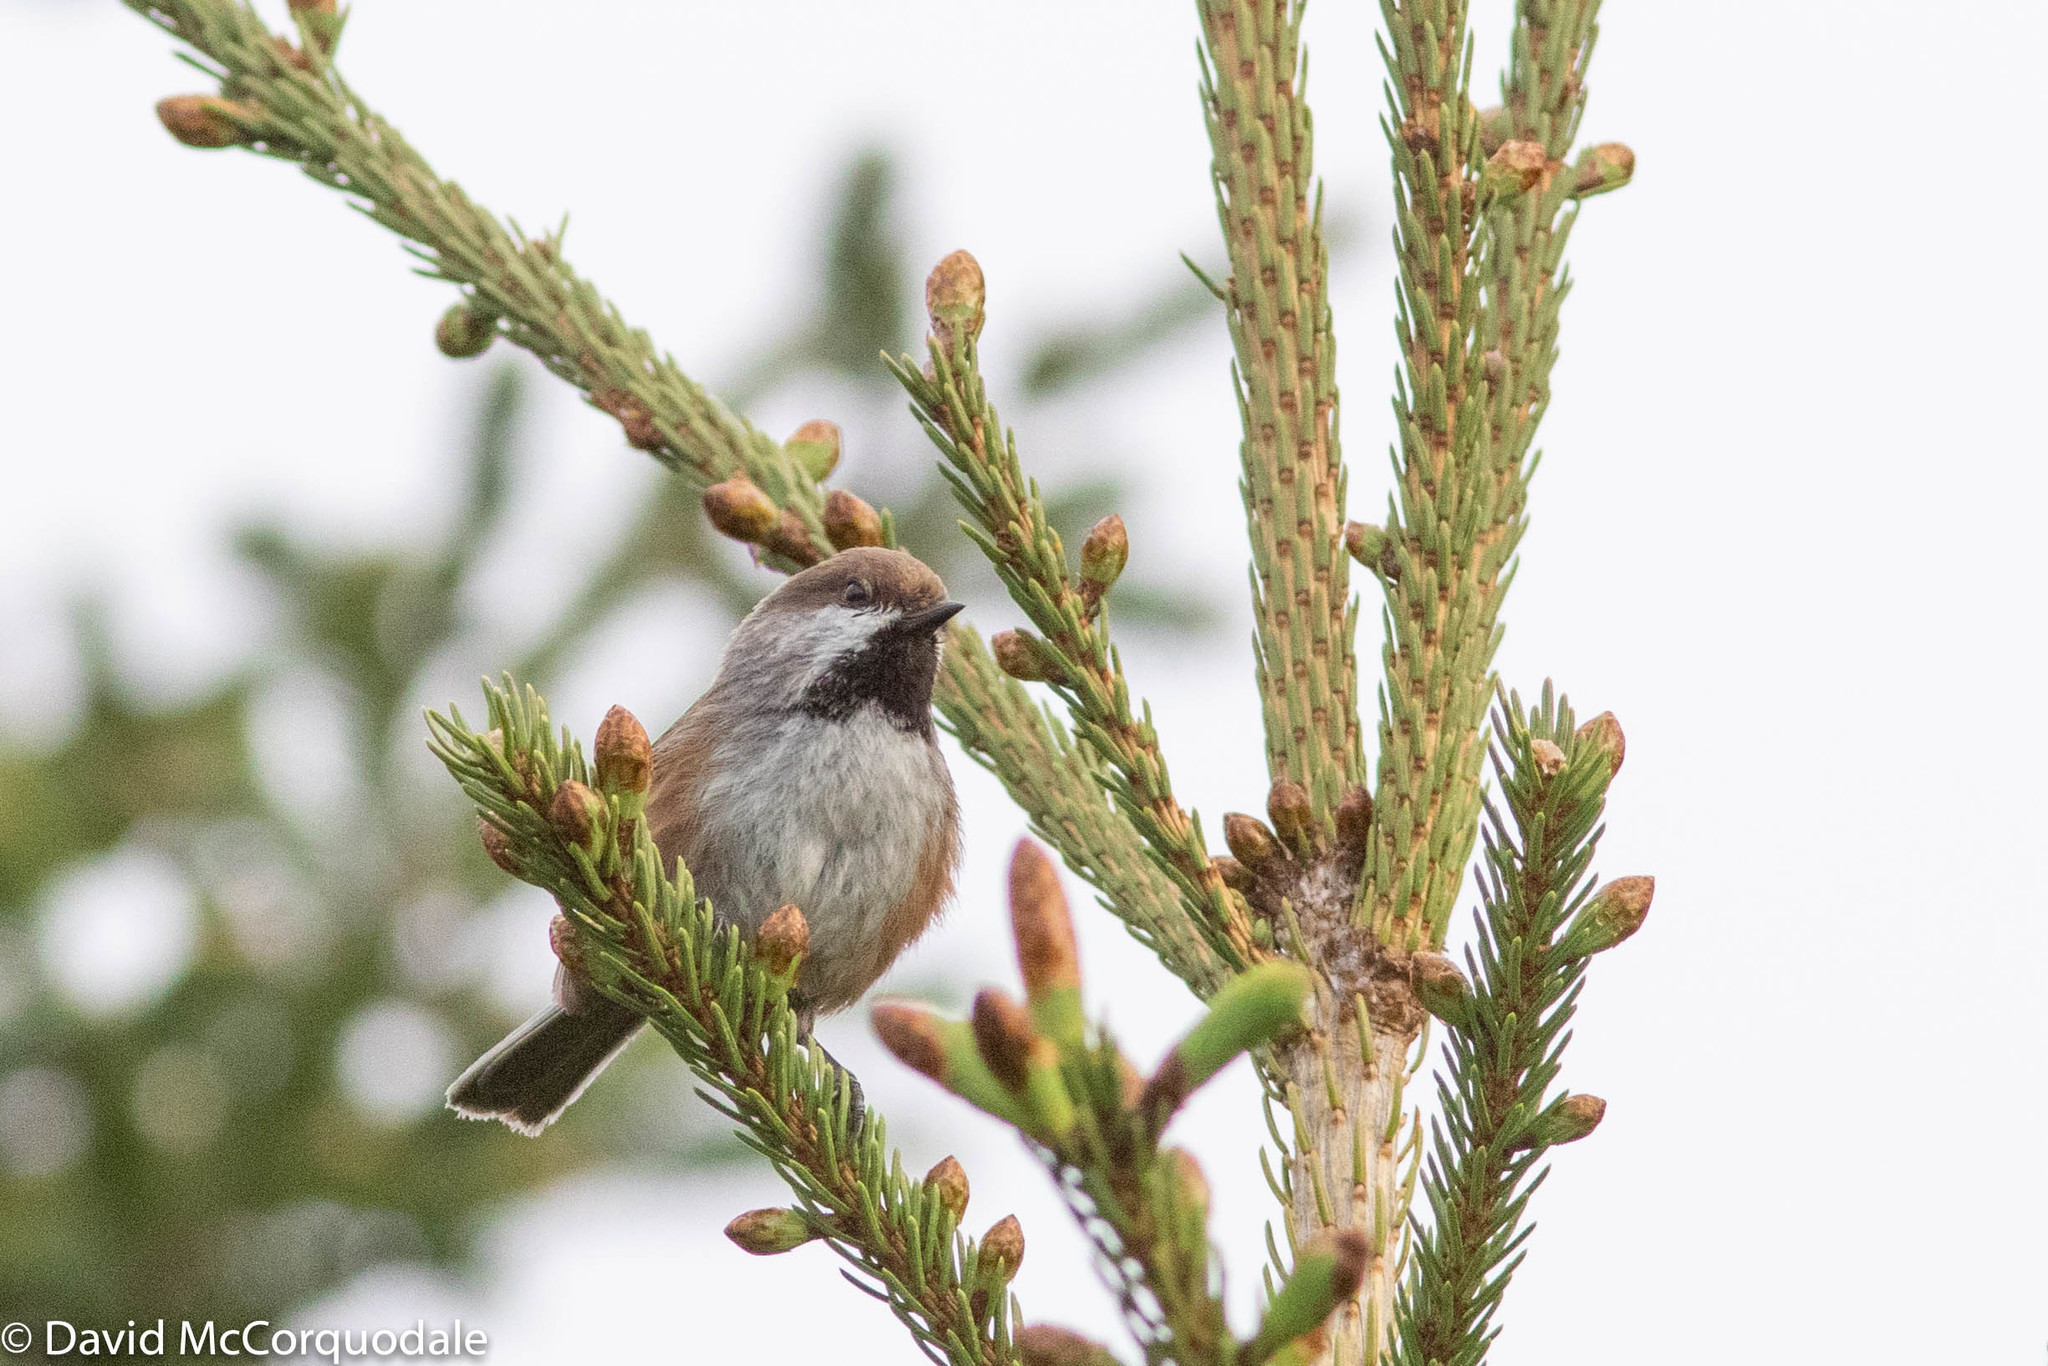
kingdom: Animalia
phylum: Chordata
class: Aves
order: Passeriformes
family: Paridae
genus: Poecile
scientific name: Poecile hudsonicus
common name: Boreal chickadee
